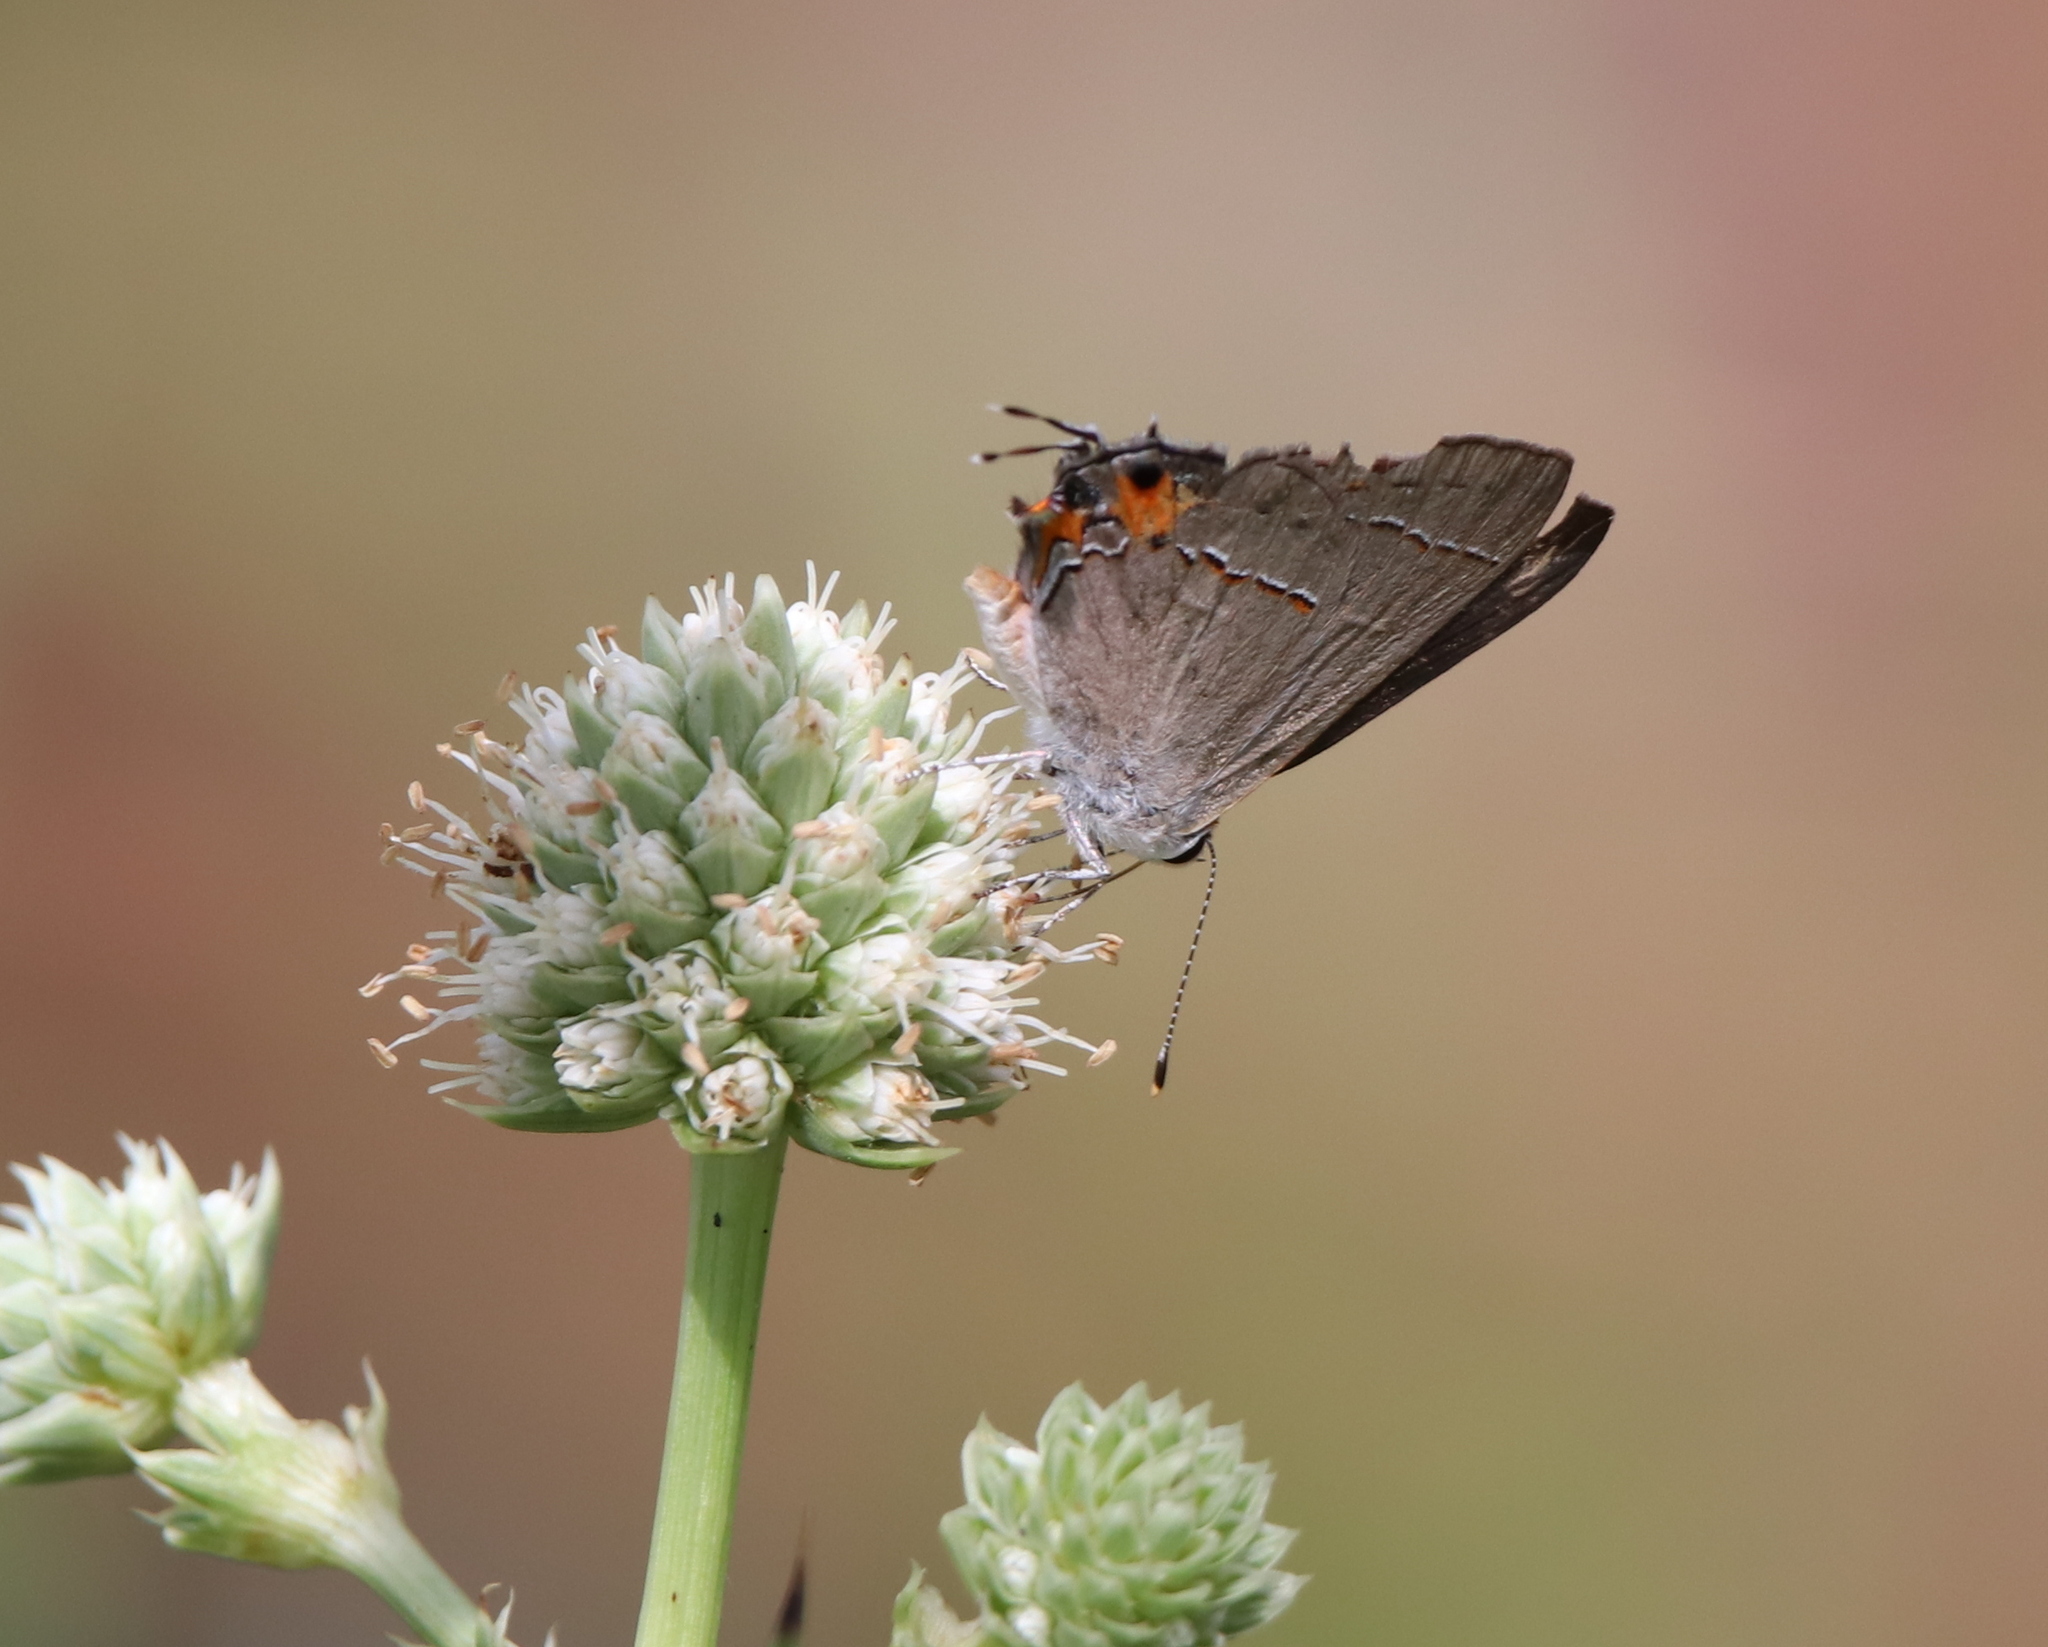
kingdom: Animalia
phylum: Arthropoda
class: Insecta
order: Lepidoptera
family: Lycaenidae
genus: Strymon
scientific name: Strymon melinus
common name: Gray hairstreak
